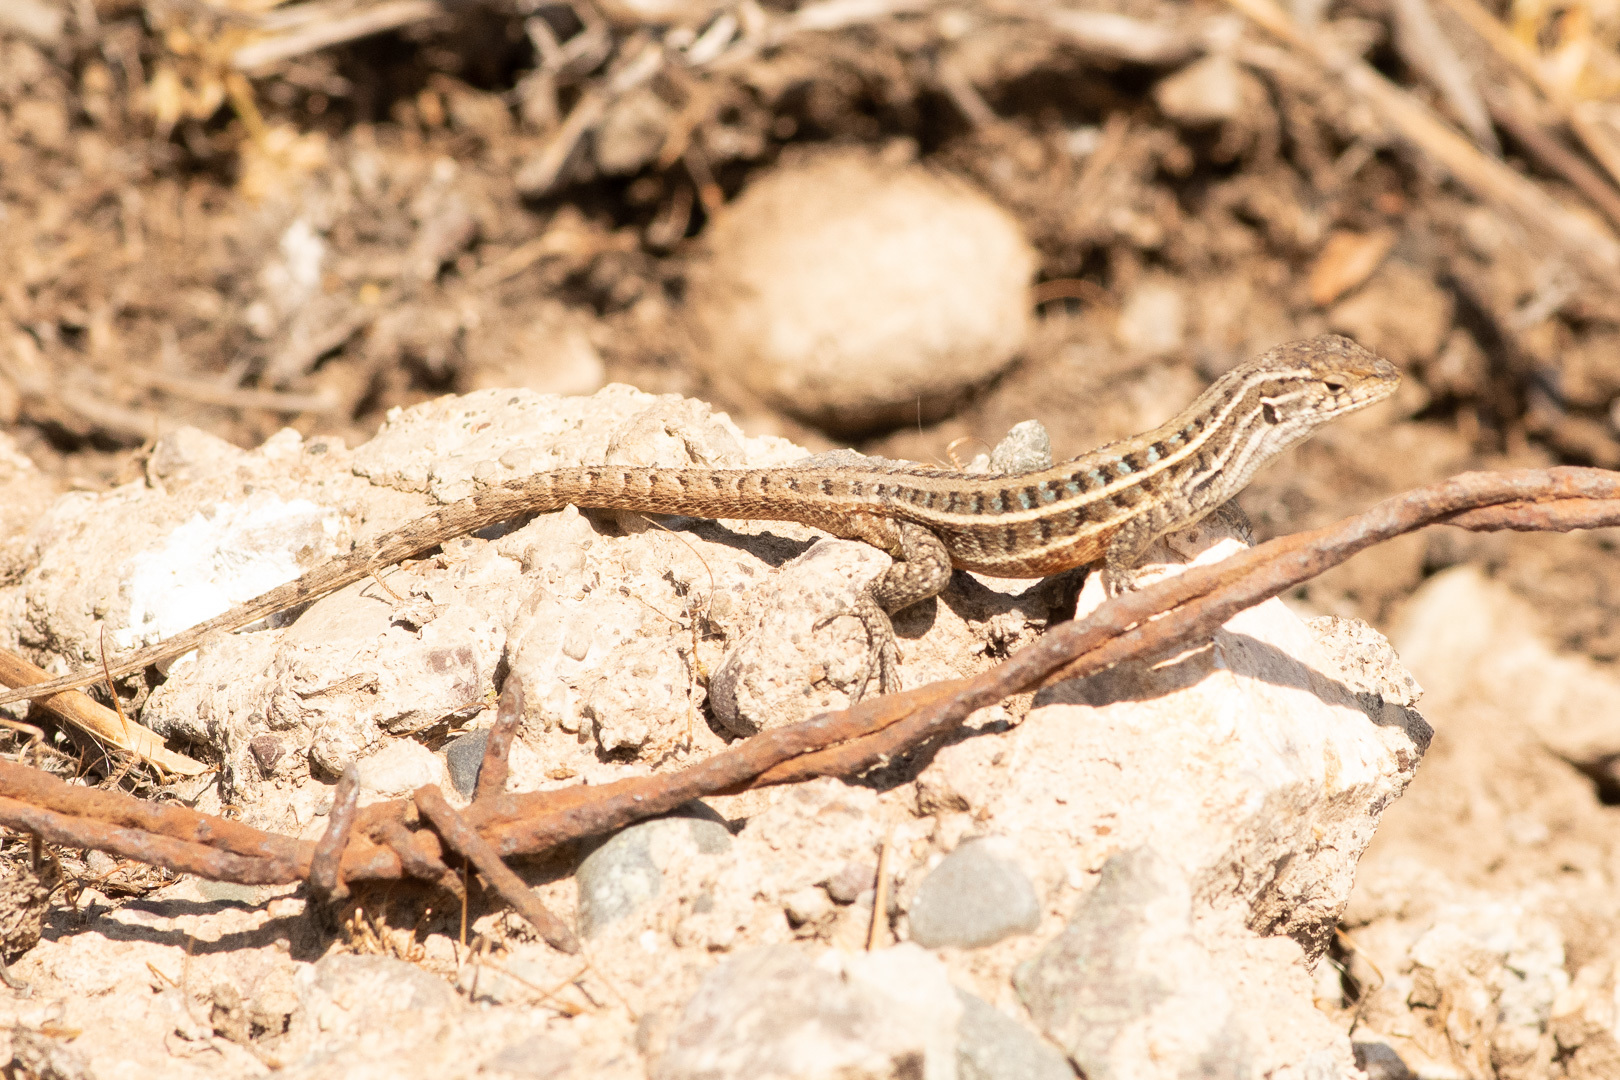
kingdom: Animalia
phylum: Chordata
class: Squamata
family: Liolaemidae
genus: Liolaemus
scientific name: Liolaemus lemniscatus
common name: Wreath tree iguana
